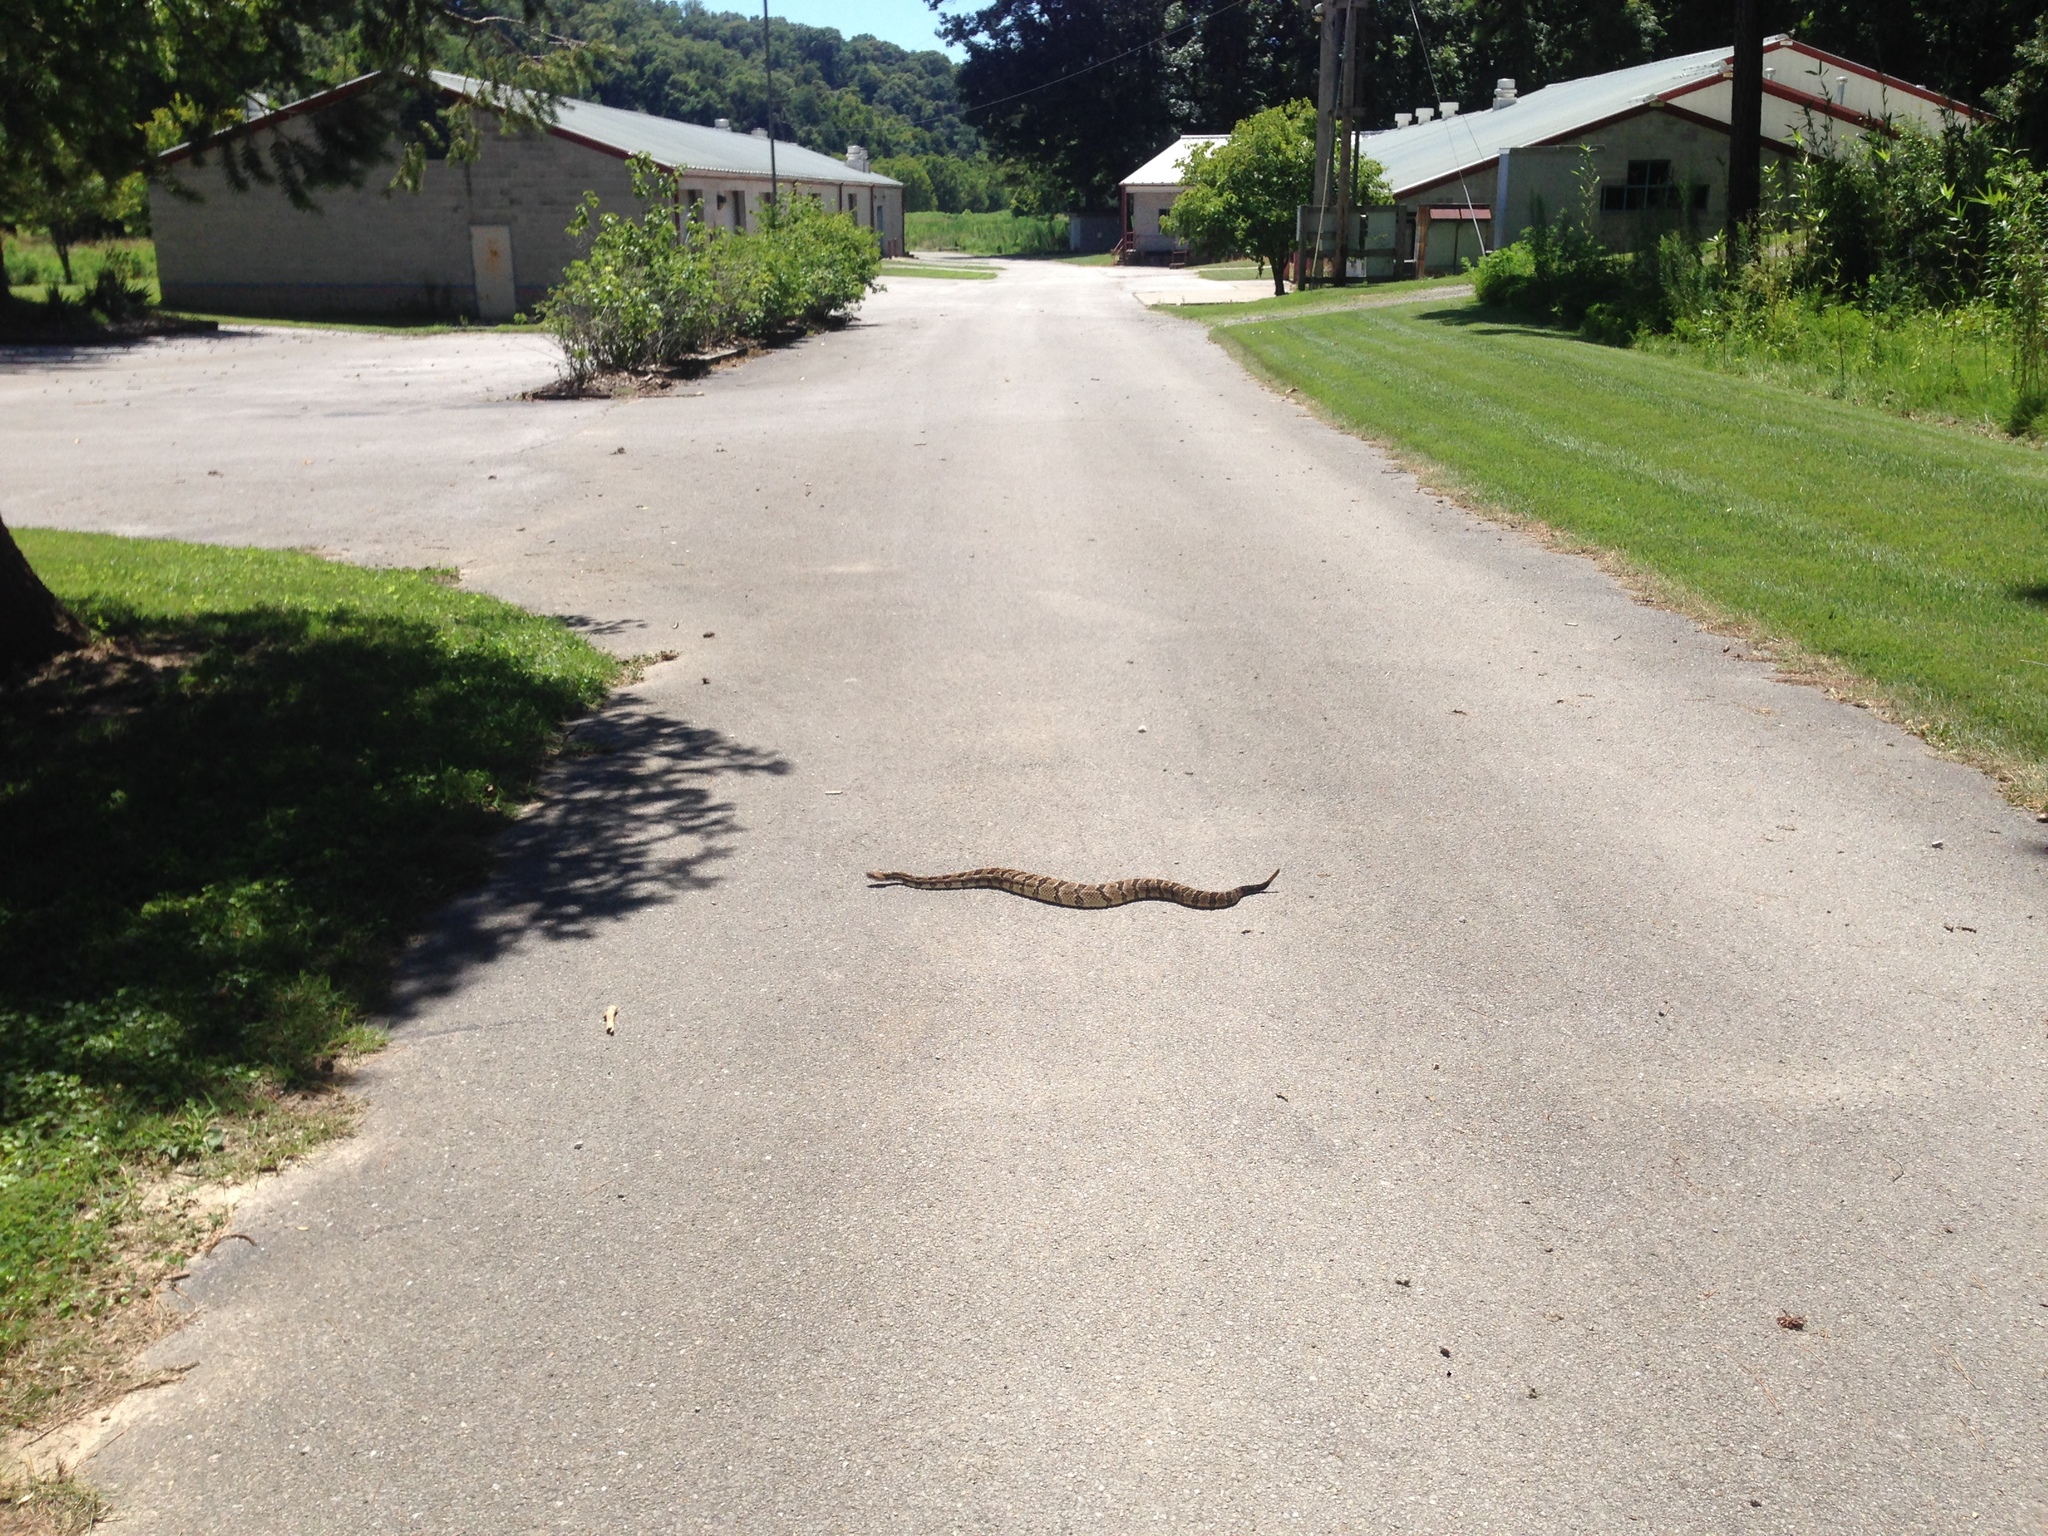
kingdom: Animalia
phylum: Chordata
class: Squamata
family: Viperidae
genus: Crotalus
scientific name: Crotalus horridus
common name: Timber rattlesnake
